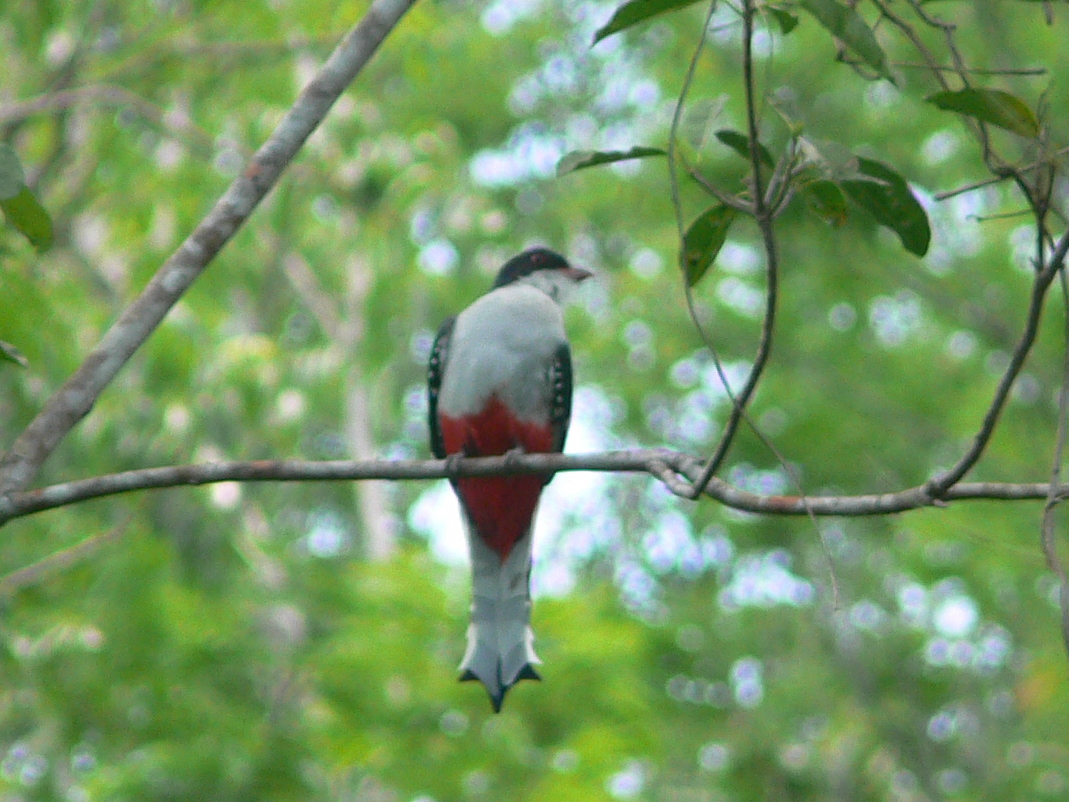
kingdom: Animalia
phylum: Chordata
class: Aves
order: Trogoniformes
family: Trogonidae
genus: Priotelus
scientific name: Priotelus temnurus
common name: Cuban trogon
